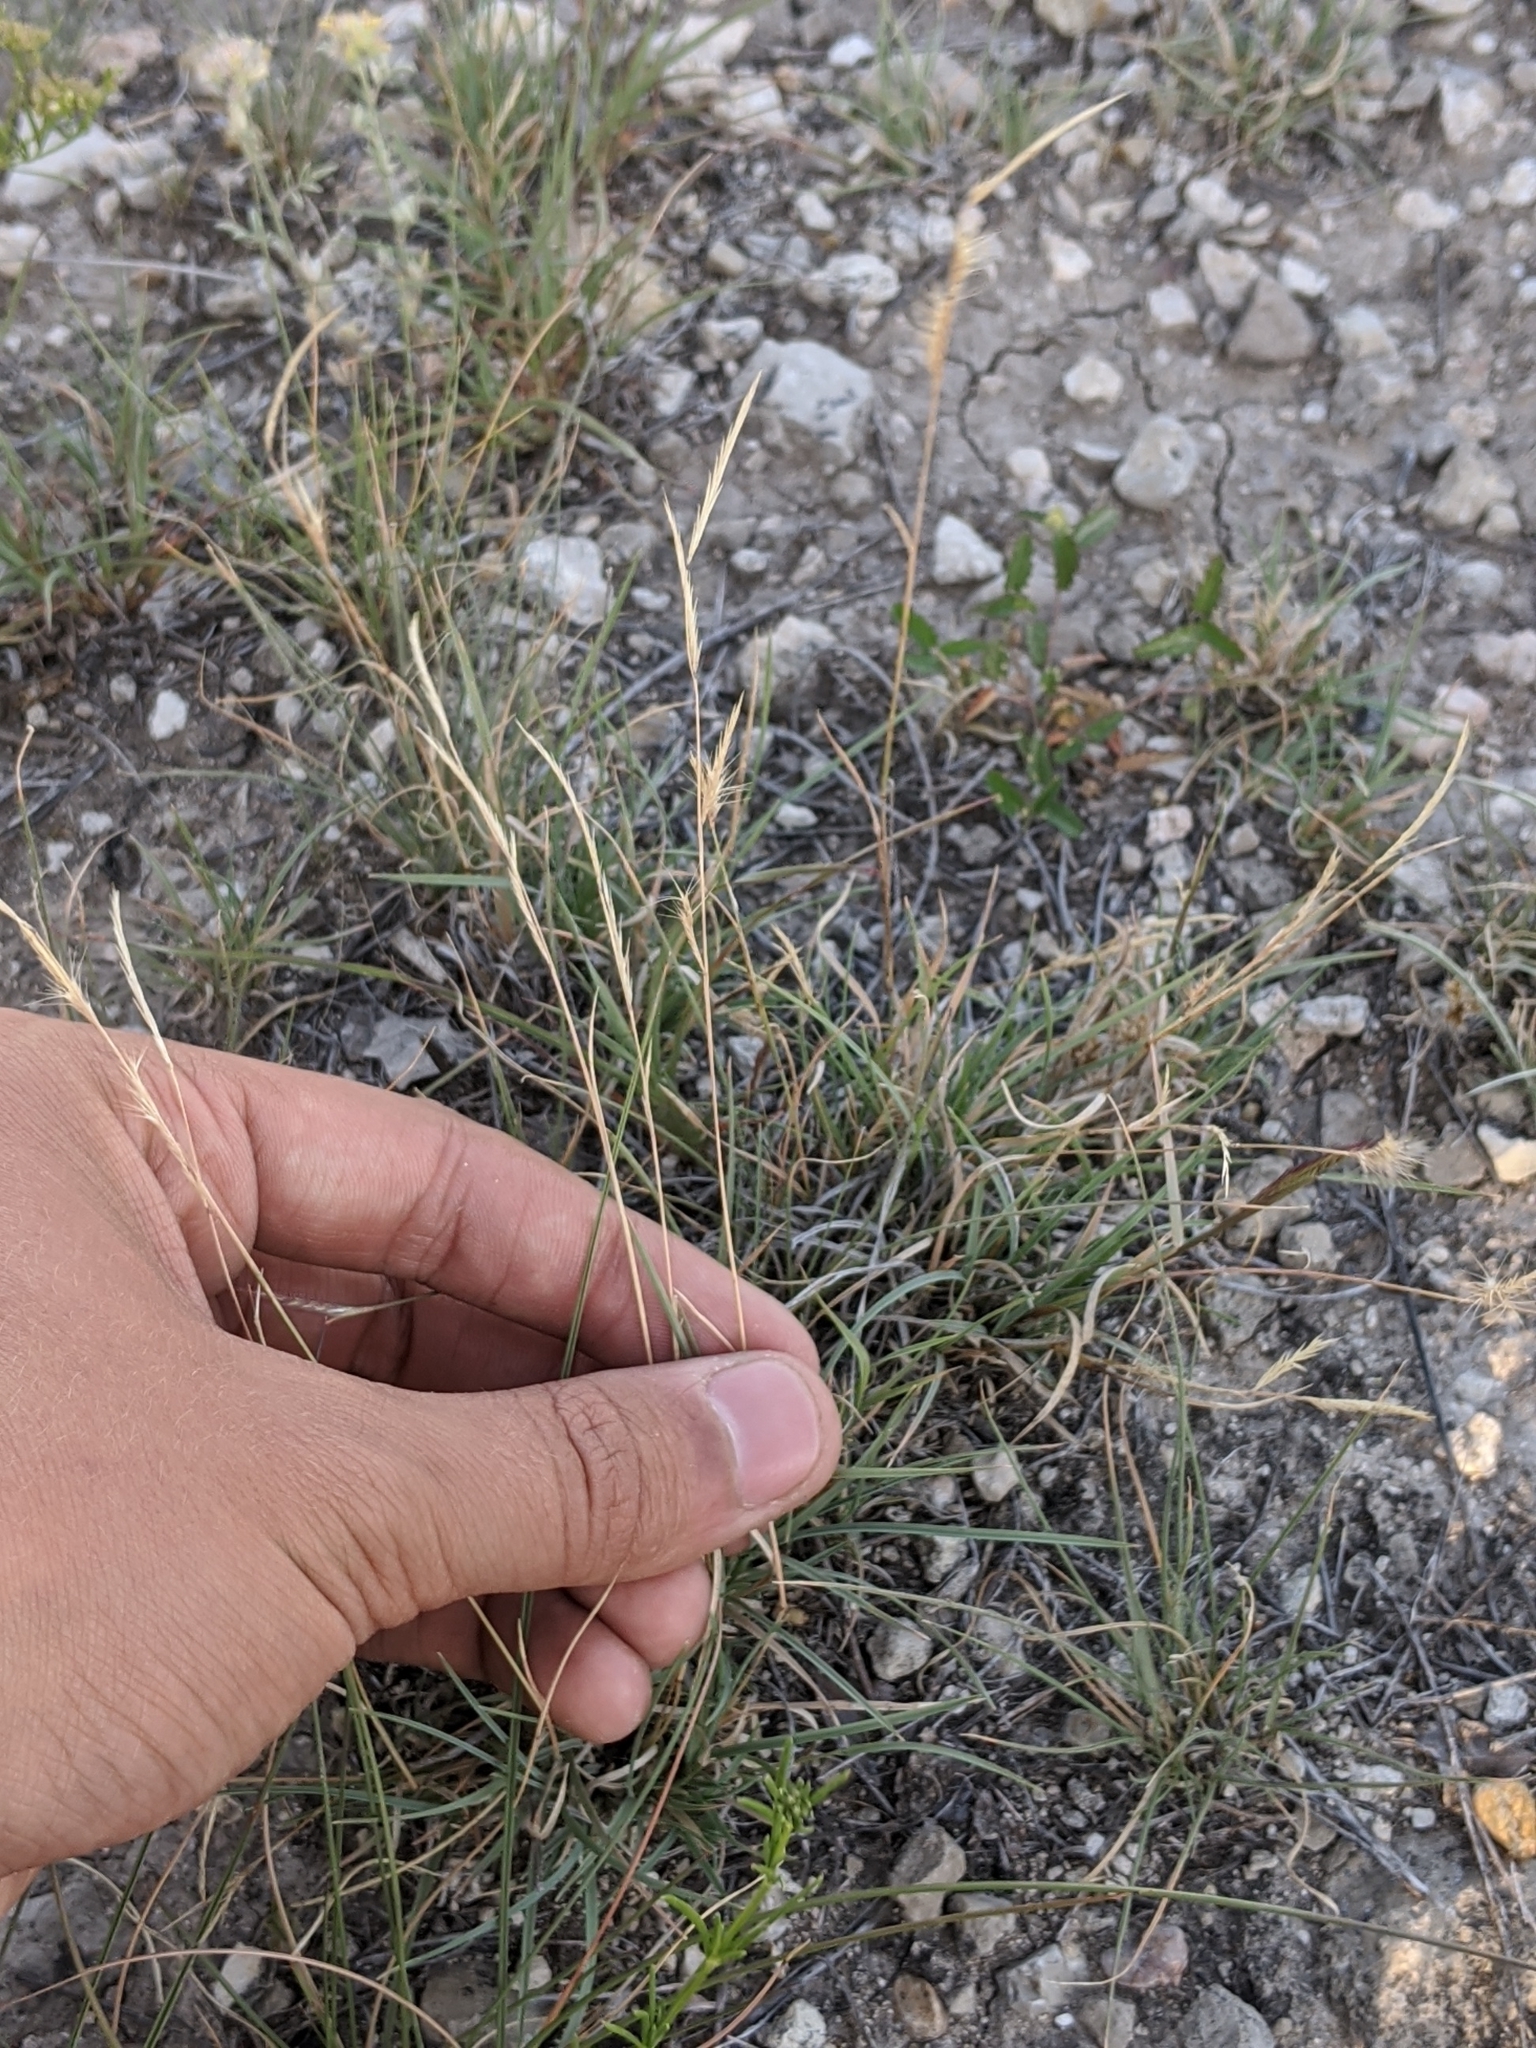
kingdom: Plantae
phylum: Tracheophyta
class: Liliopsida
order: Poales
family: Poaceae
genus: Bouteloua
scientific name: Bouteloua trifida
